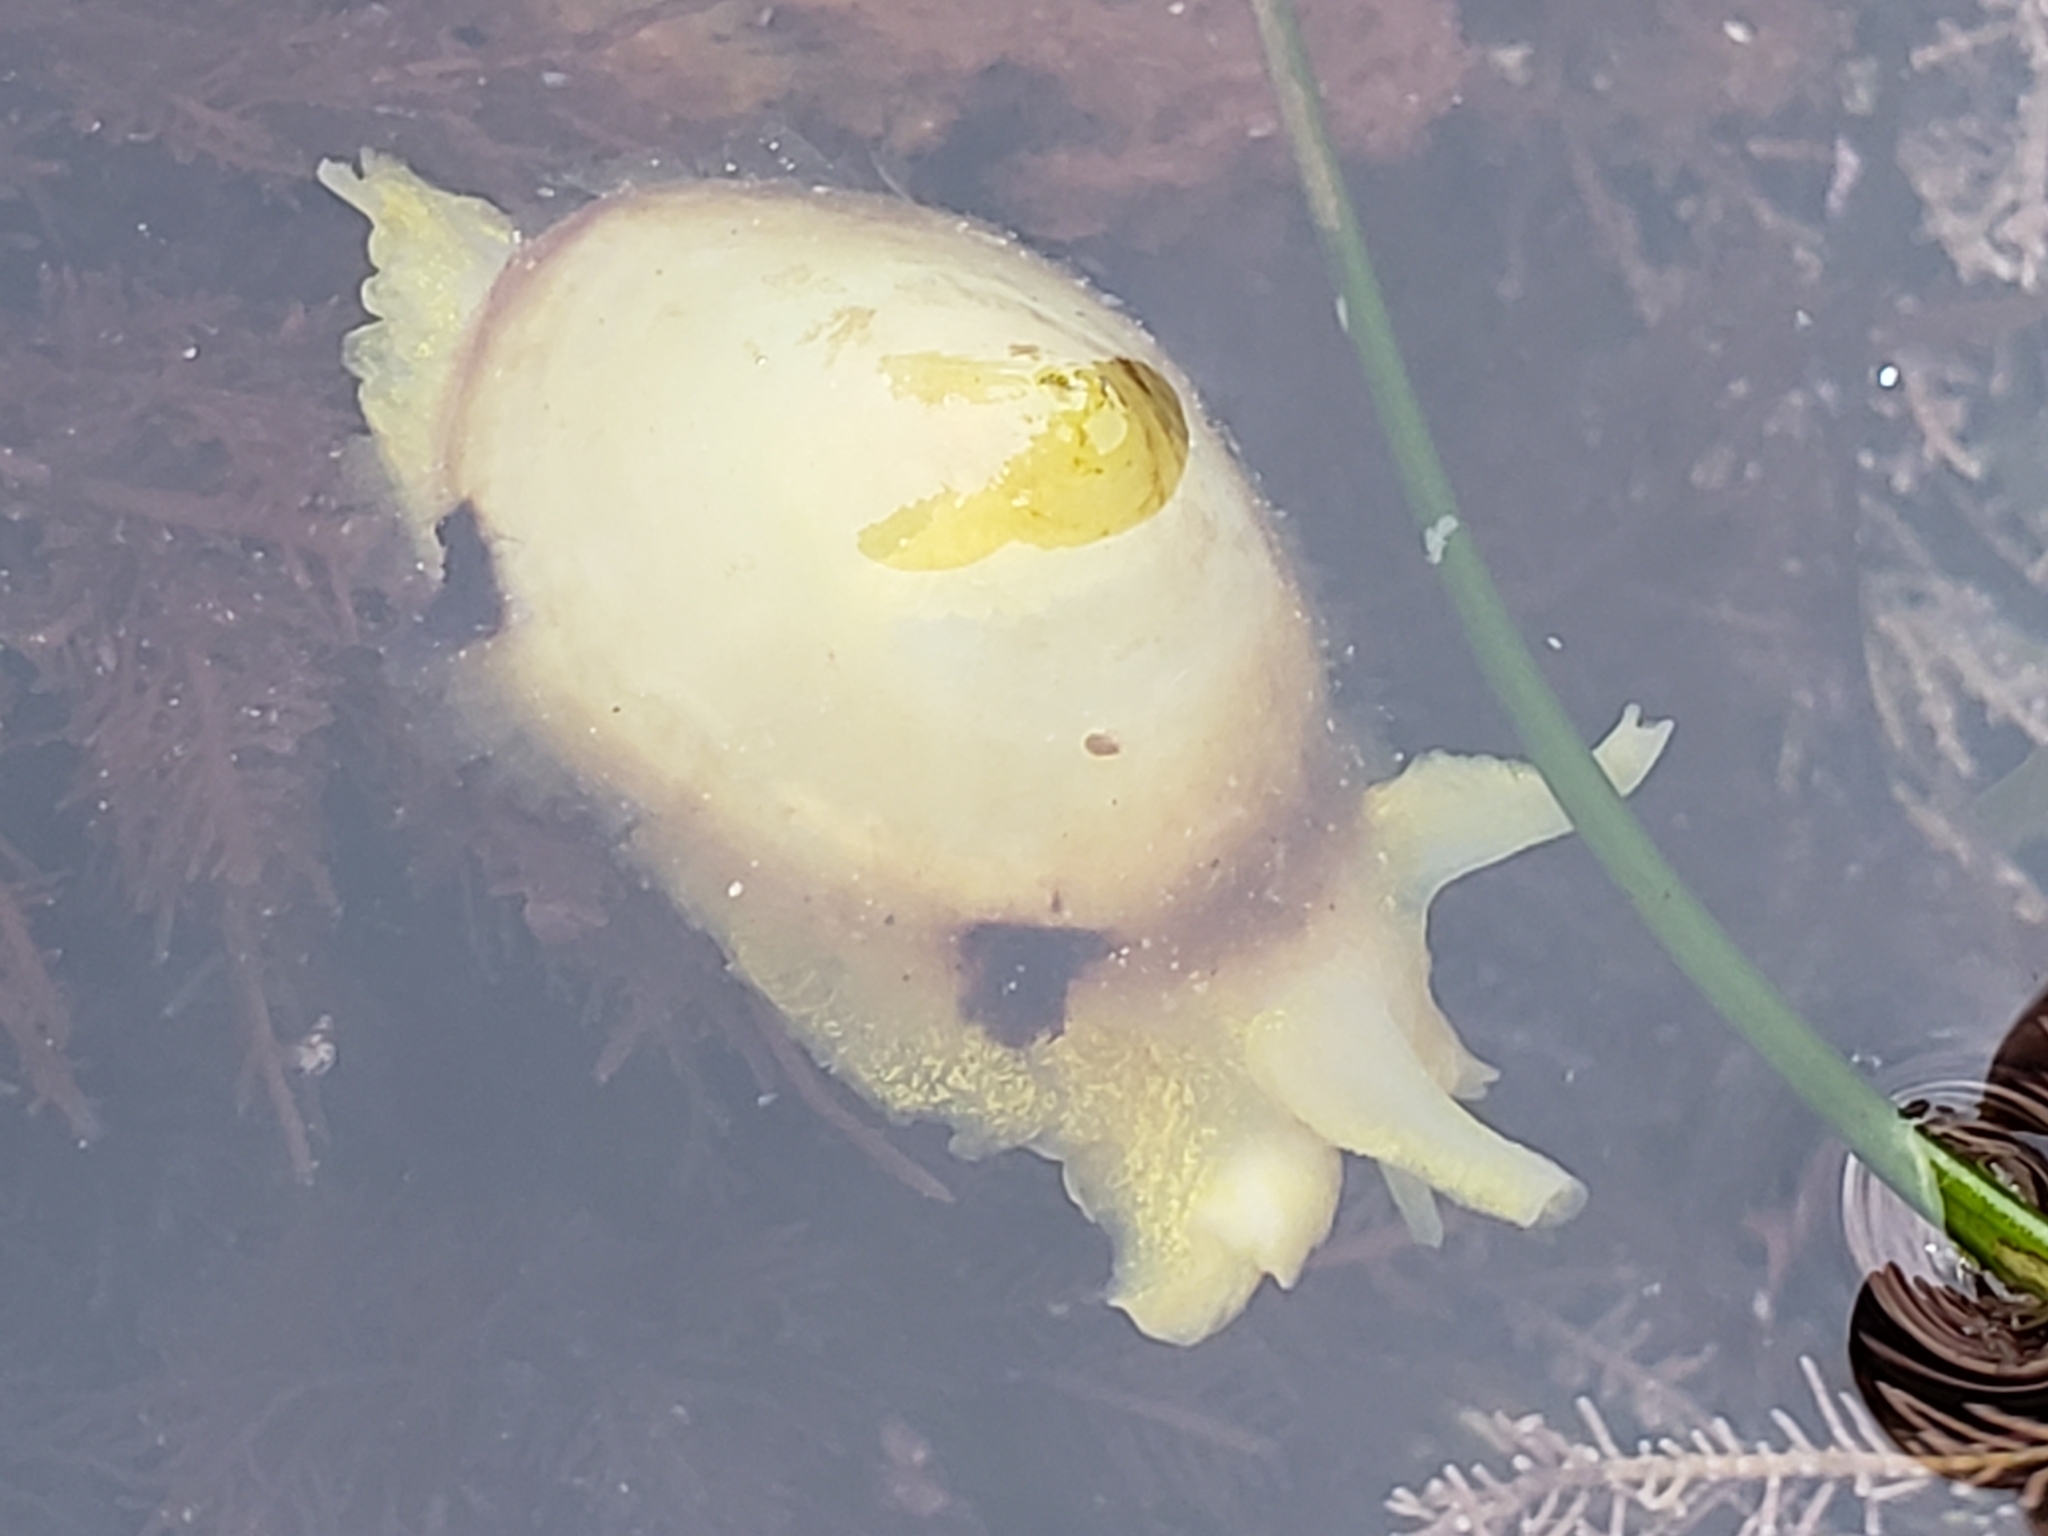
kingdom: Animalia
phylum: Mollusca
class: Gastropoda
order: Umbraculida
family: Tylodinidae
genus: Tylodina
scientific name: Tylodina fungina
